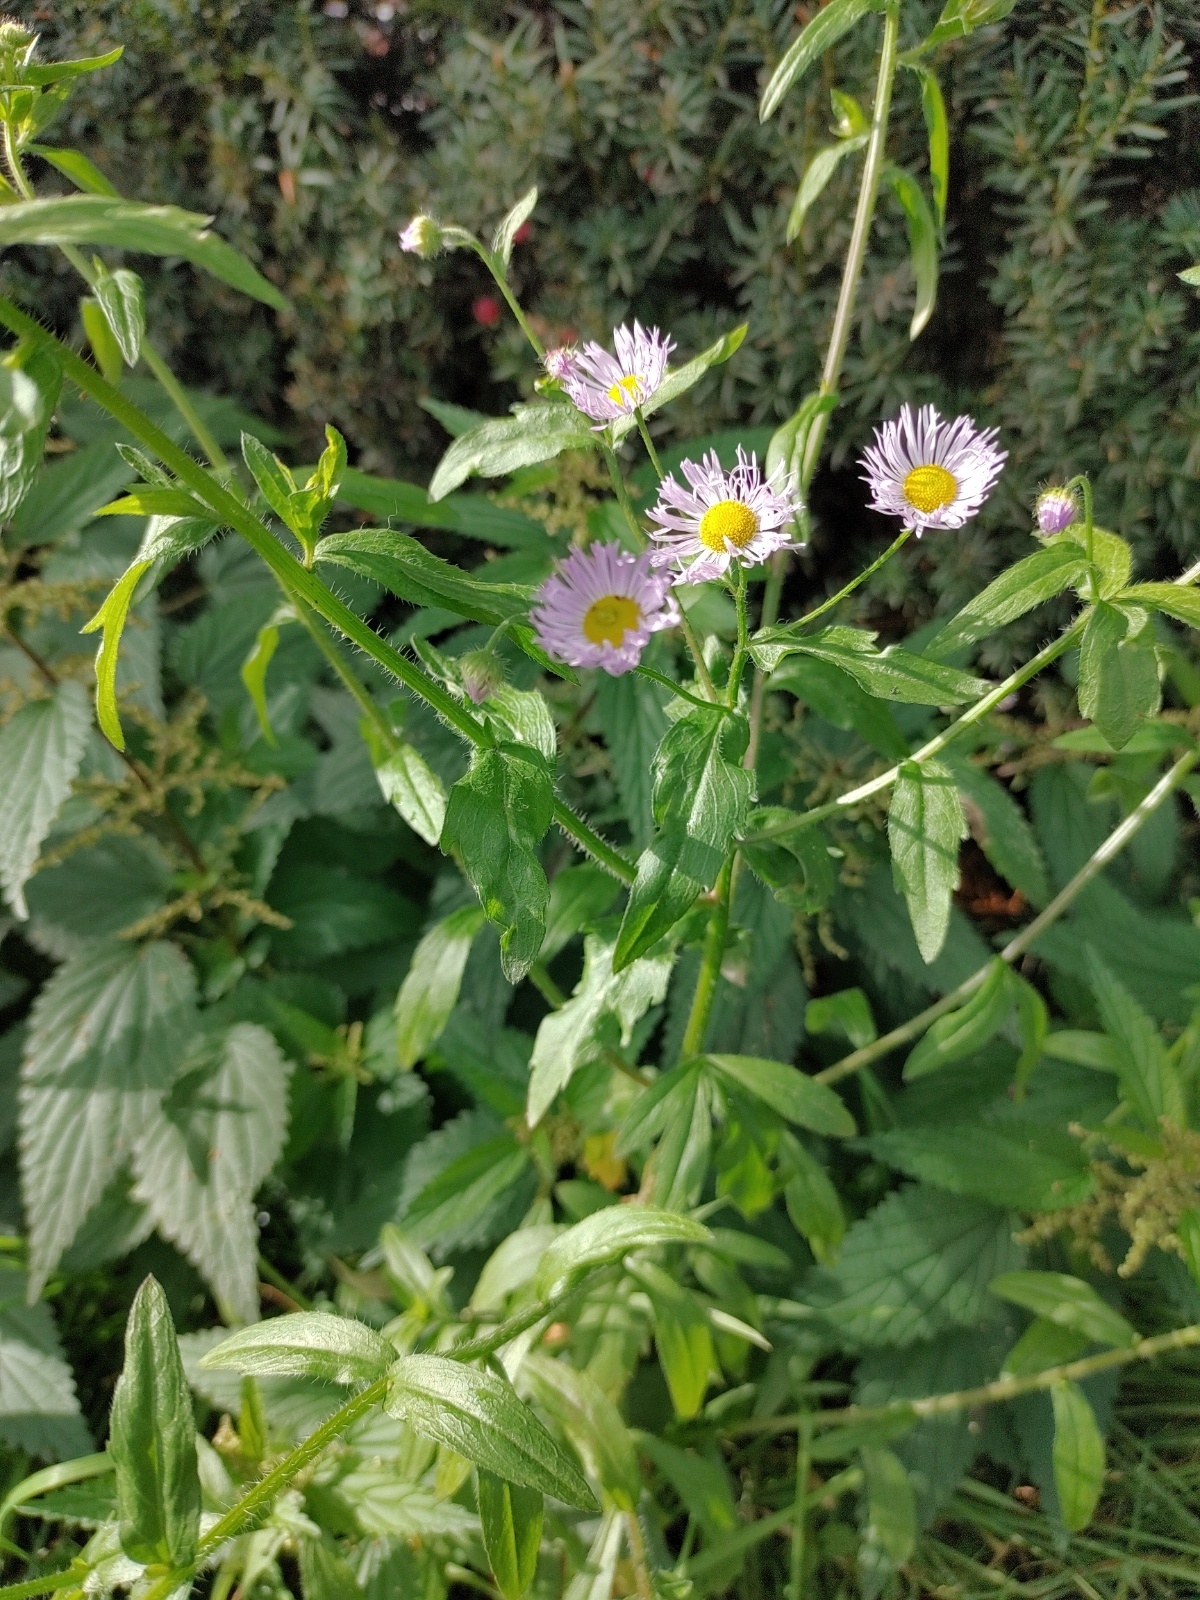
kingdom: Plantae
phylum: Tracheophyta
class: Magnoliopsida
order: Asterales
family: Asteraceae
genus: Erigeron
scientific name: Erigeron annuus
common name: Tall fleabane
